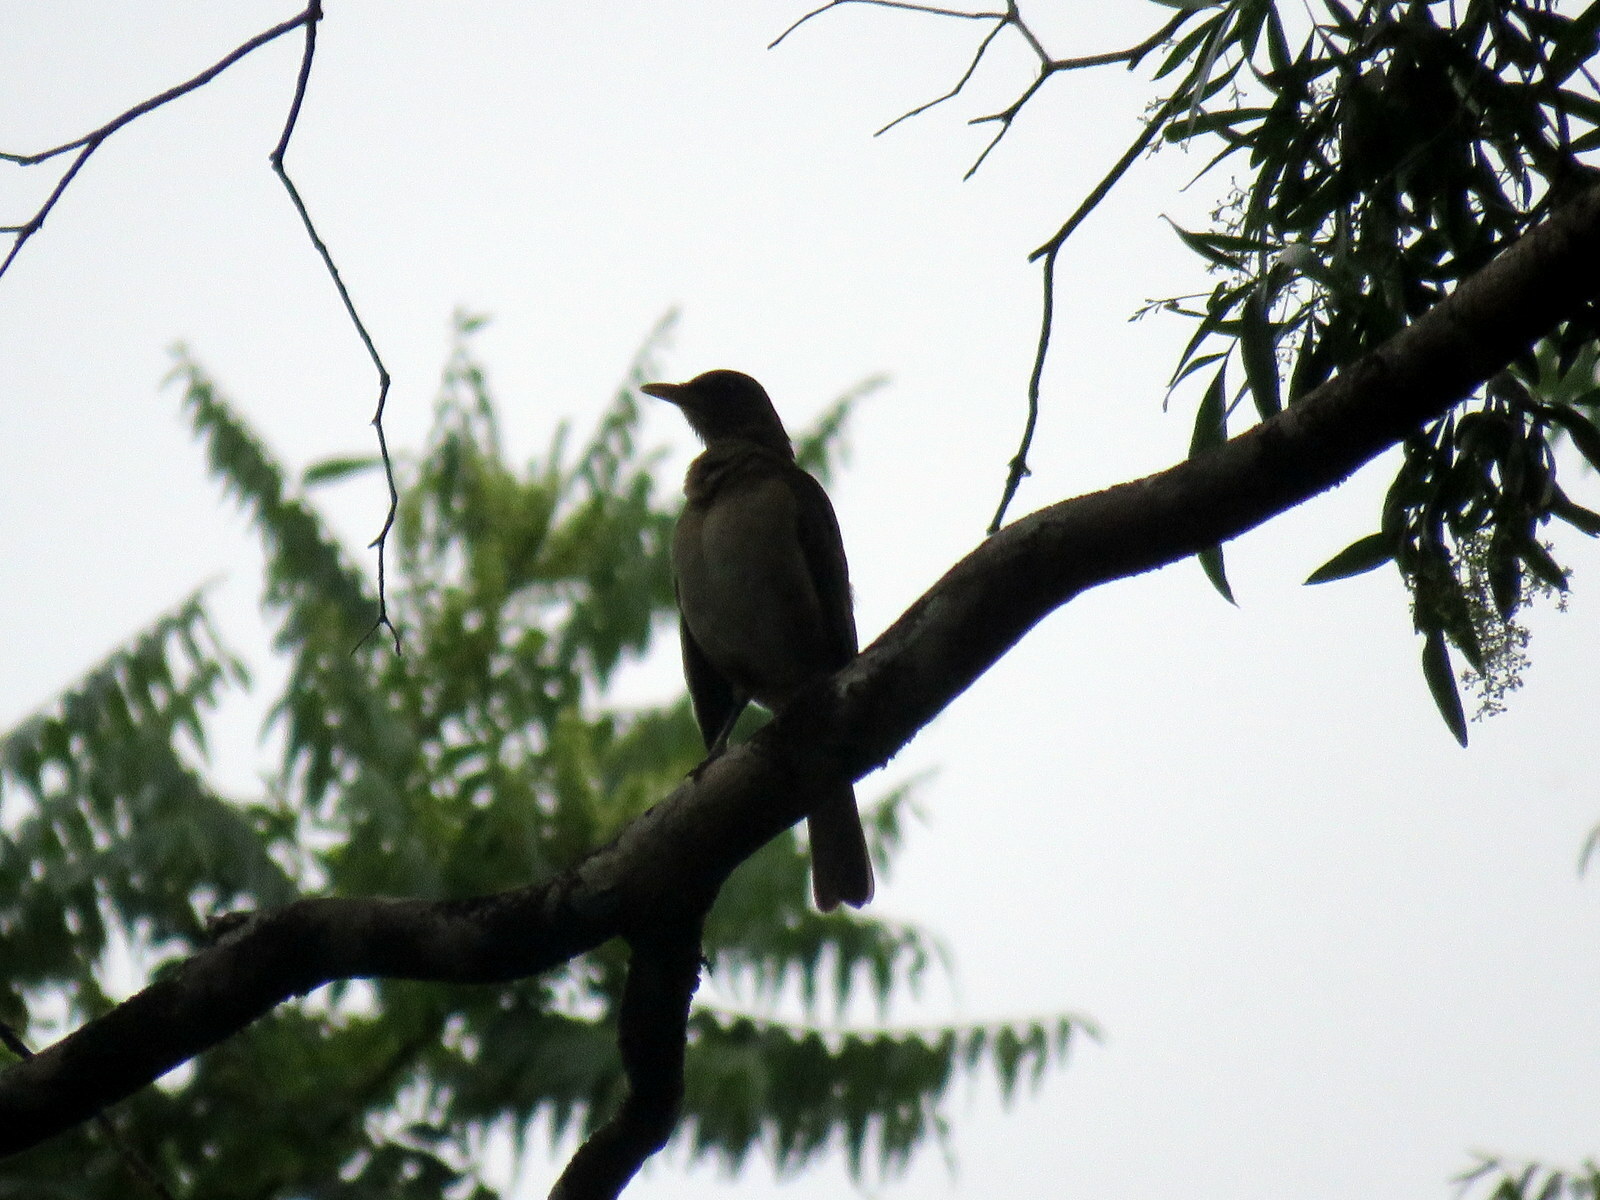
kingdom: Animalia
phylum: Chordata
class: Aves
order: Passeriformes
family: Turdidae
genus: Turdus
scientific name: Turdus amaurochalinus
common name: Creamy-bellied thrush
